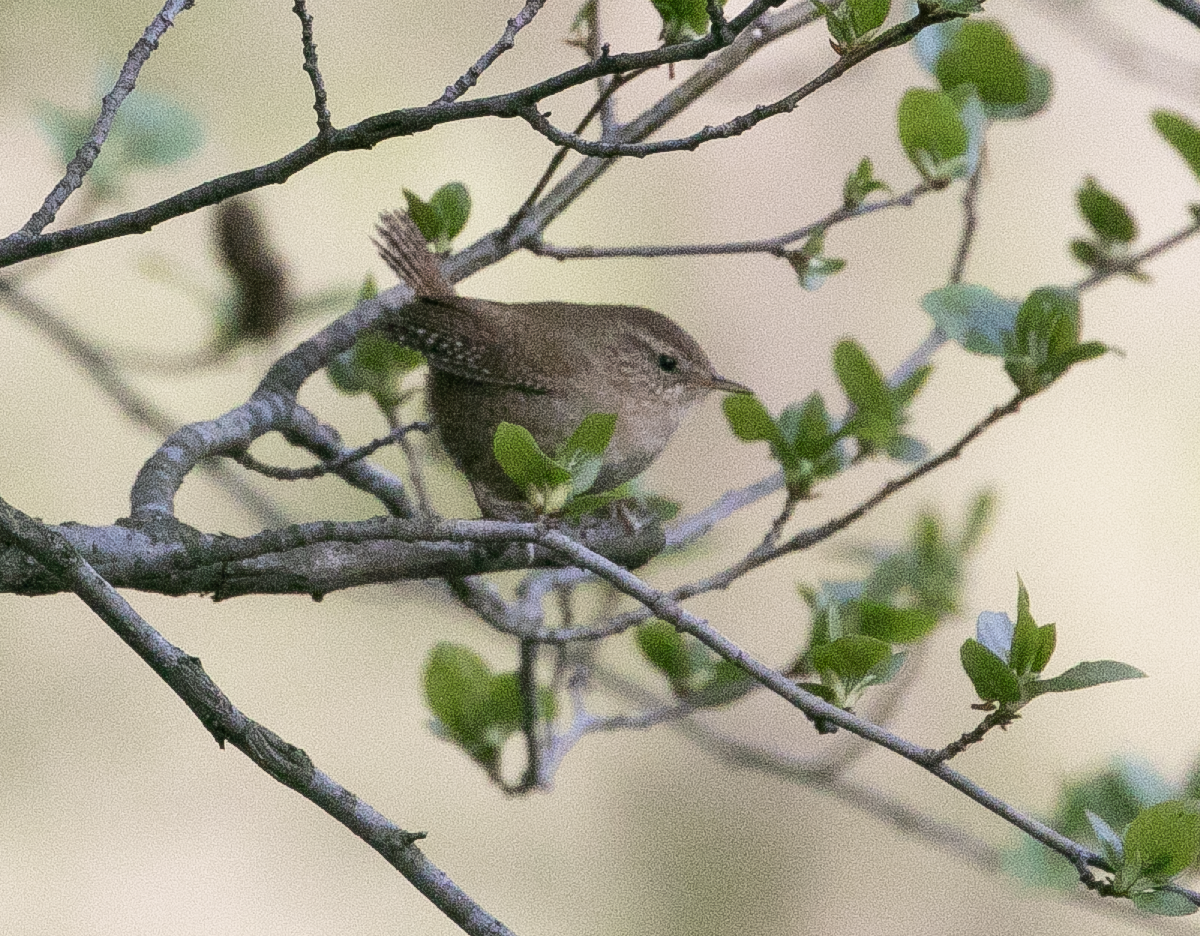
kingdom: Animalia
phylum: Chordata
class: Aves
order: Passeriformes
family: Troglodytidae
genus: Troglodytes
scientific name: Troglodytes troglodytes
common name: Eurasian wren
